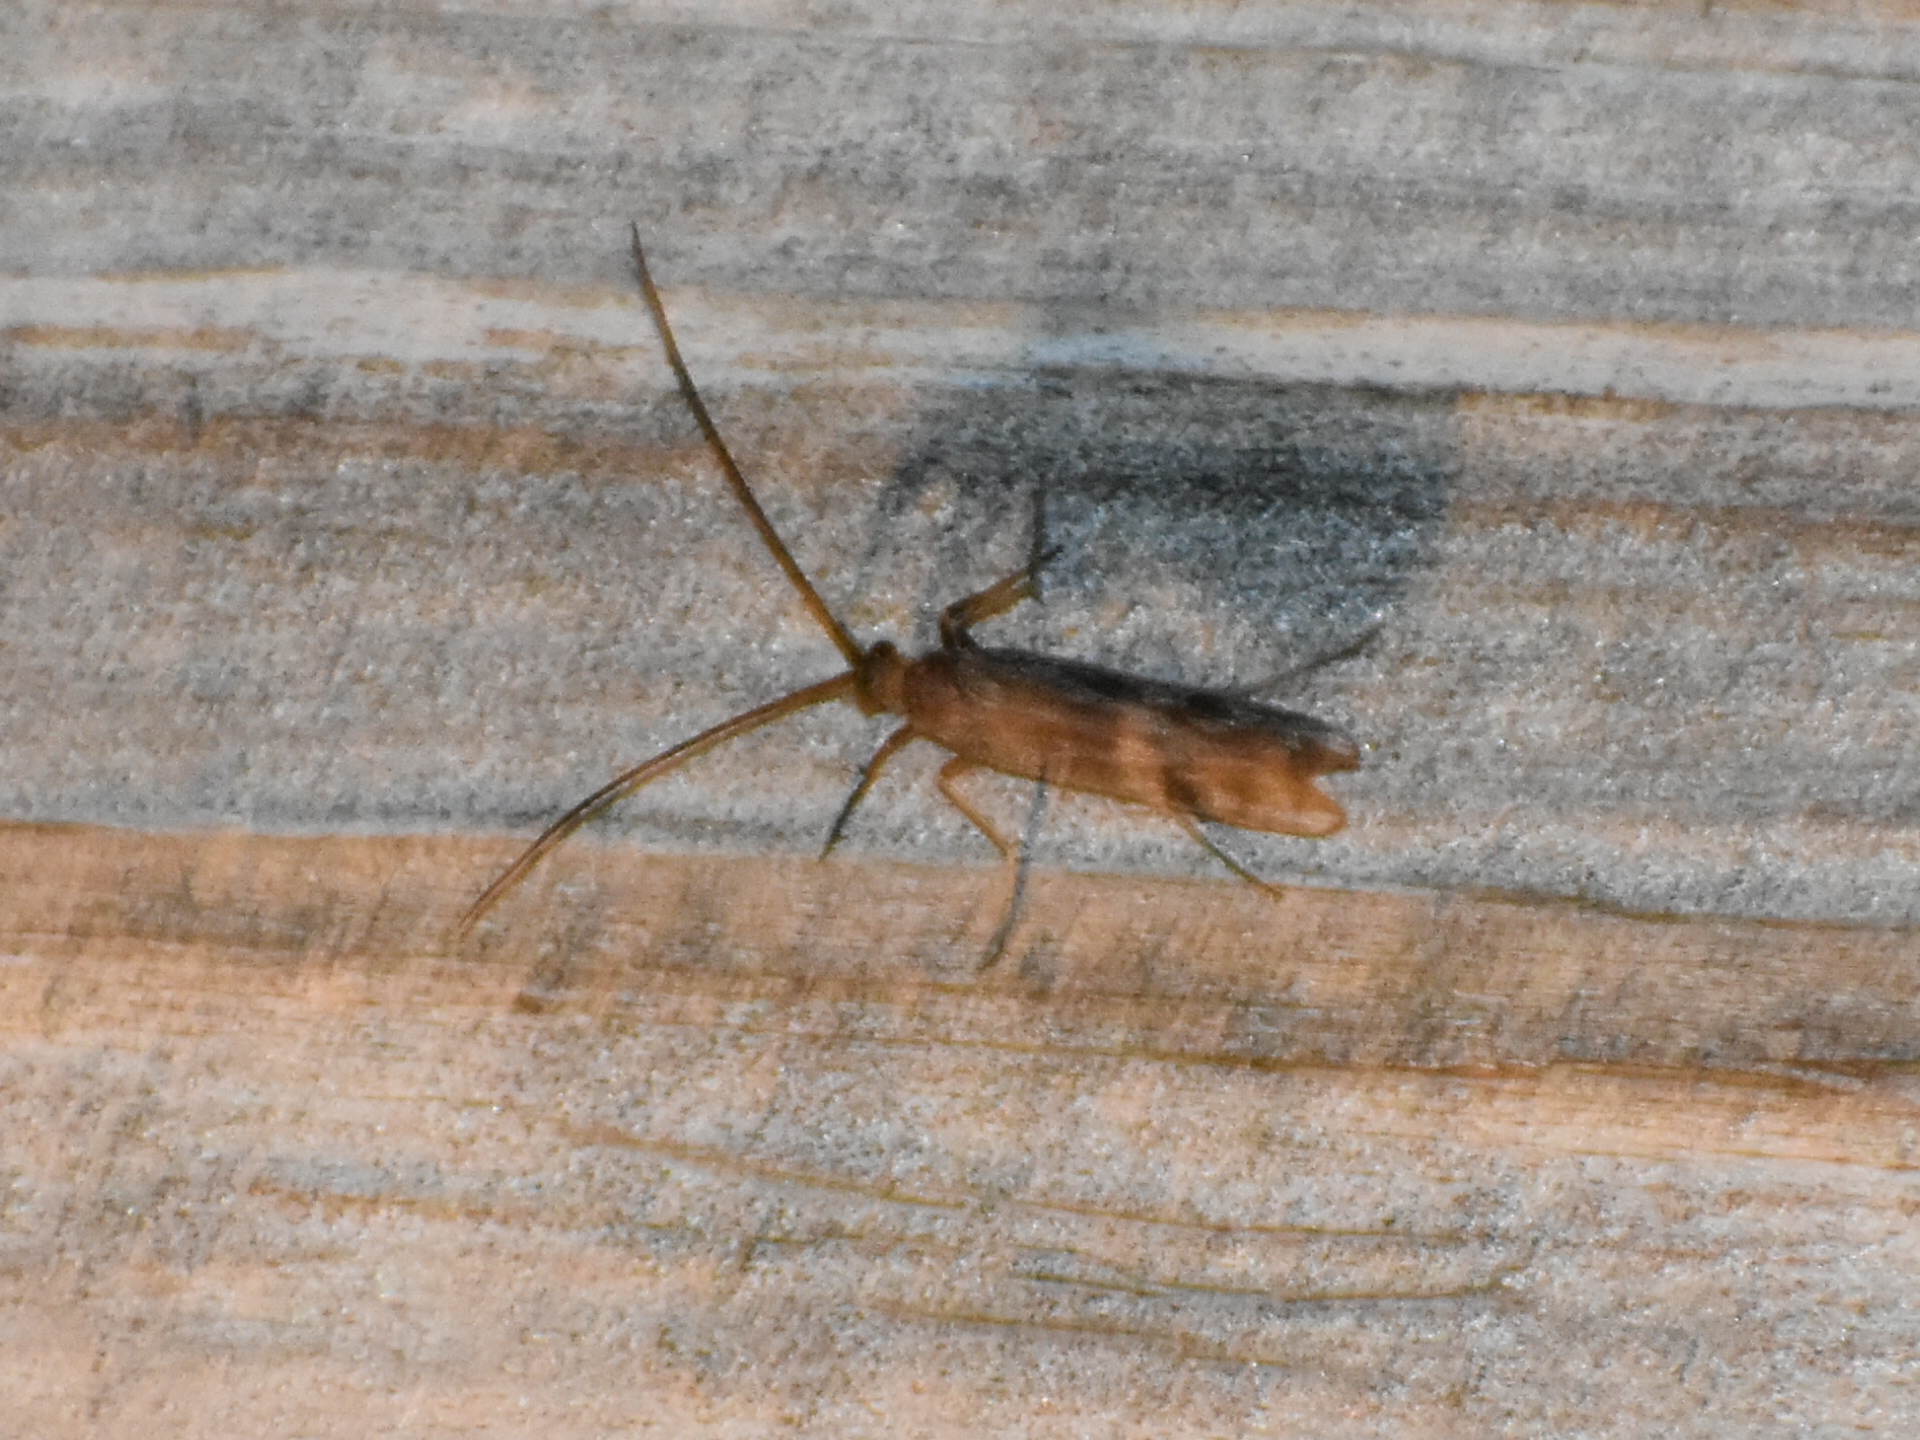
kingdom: Animalia
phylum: Arthropoda
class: Insecta
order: Trichoptera
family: Molannidae
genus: Molanna
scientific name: Molanna
